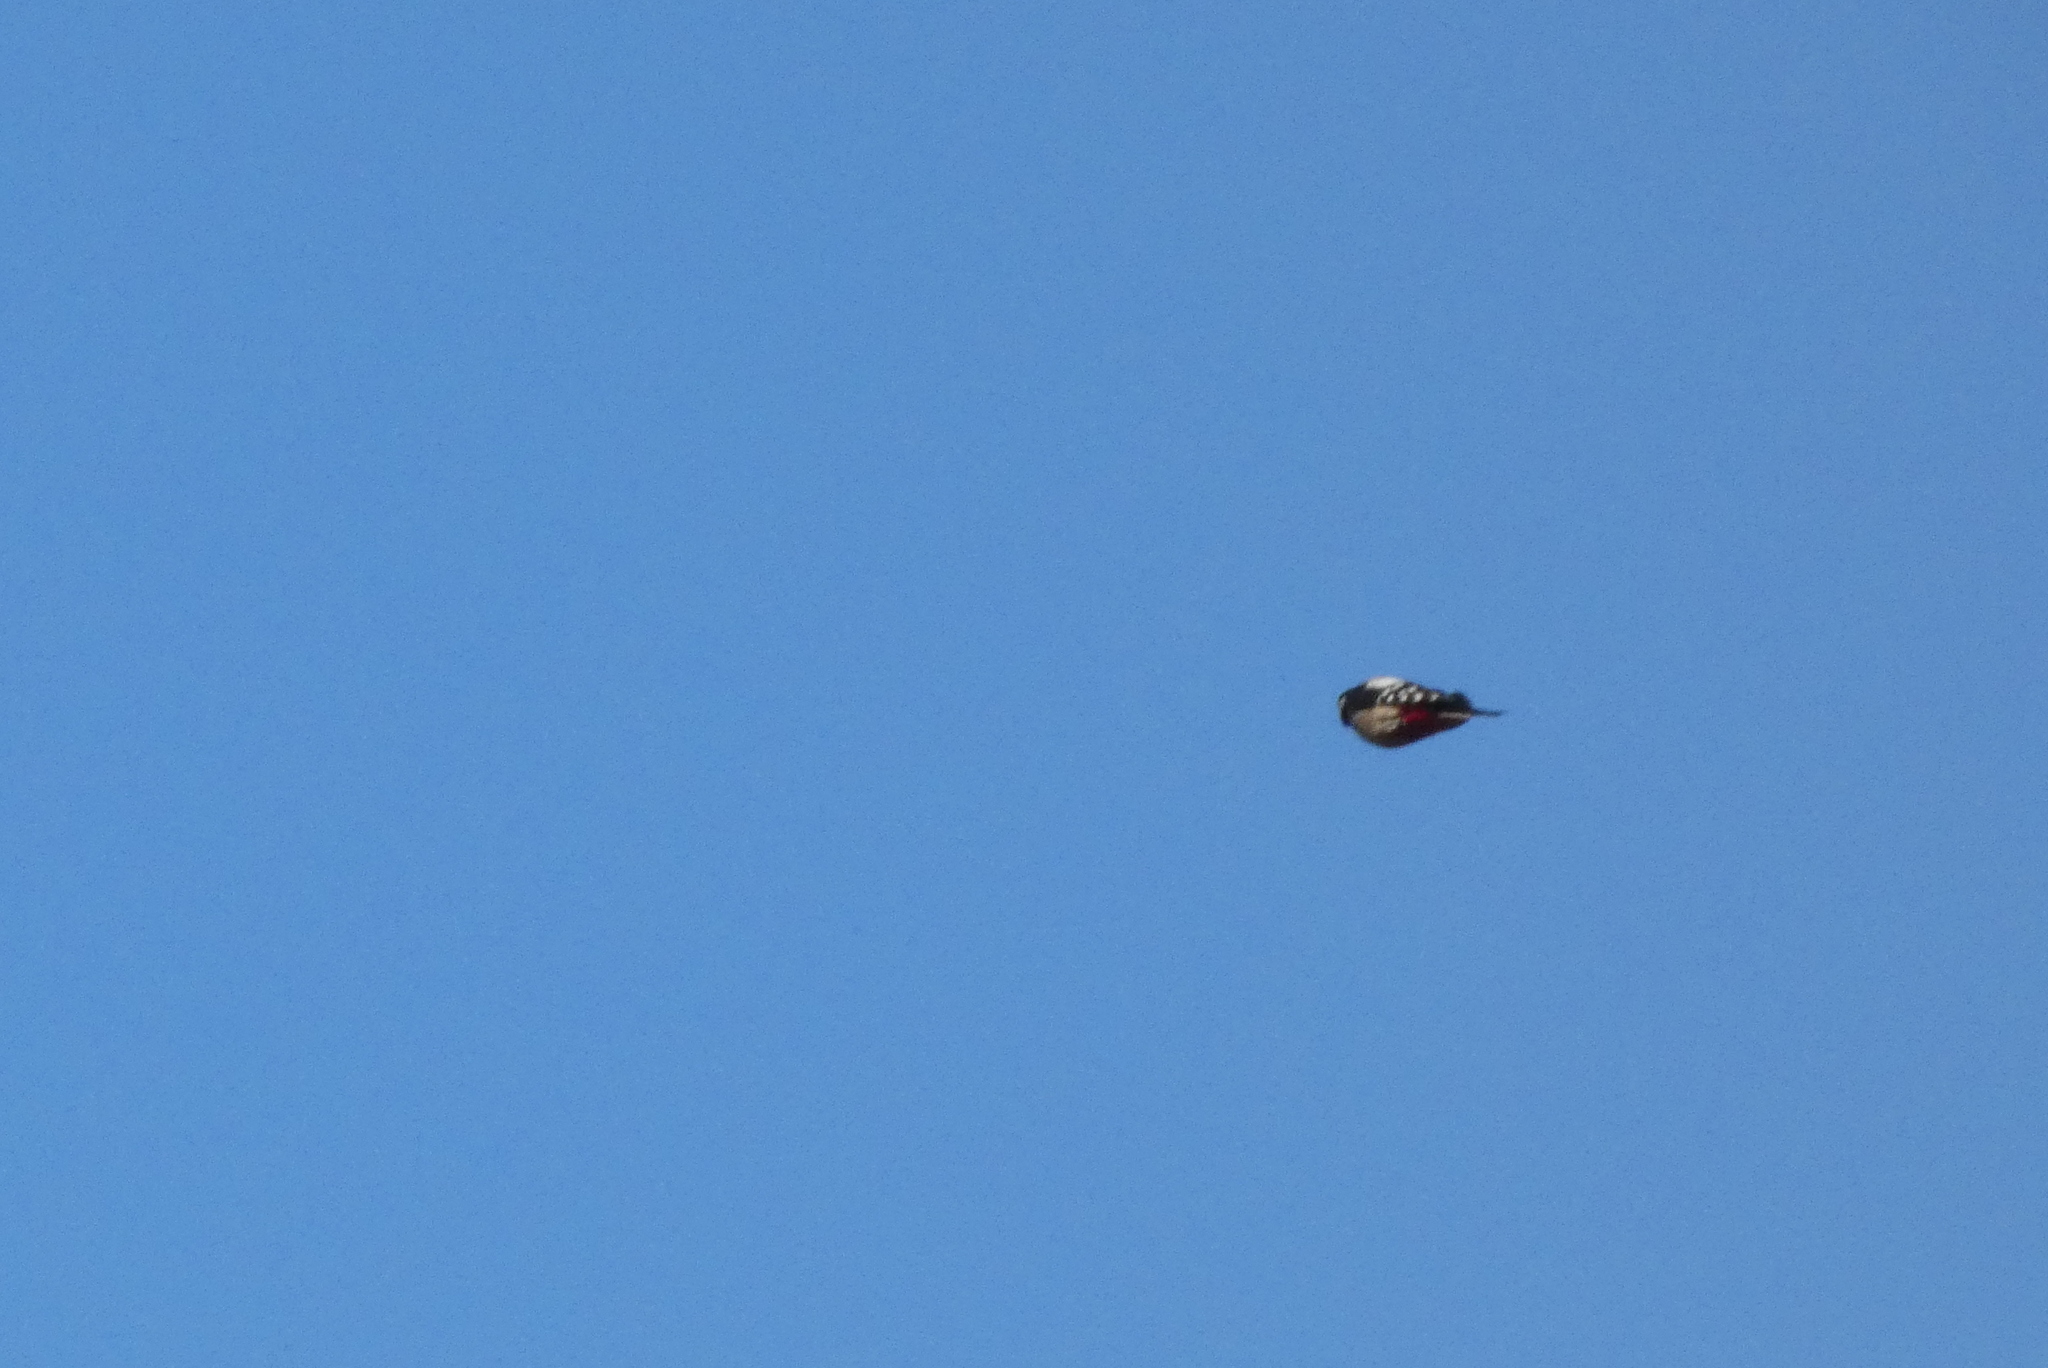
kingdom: Animalia
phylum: Chordata
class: Aves
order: Piciformes
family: Picidae
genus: Dendrocopos
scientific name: Dendrocopos major
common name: Great spotted woodpecker
